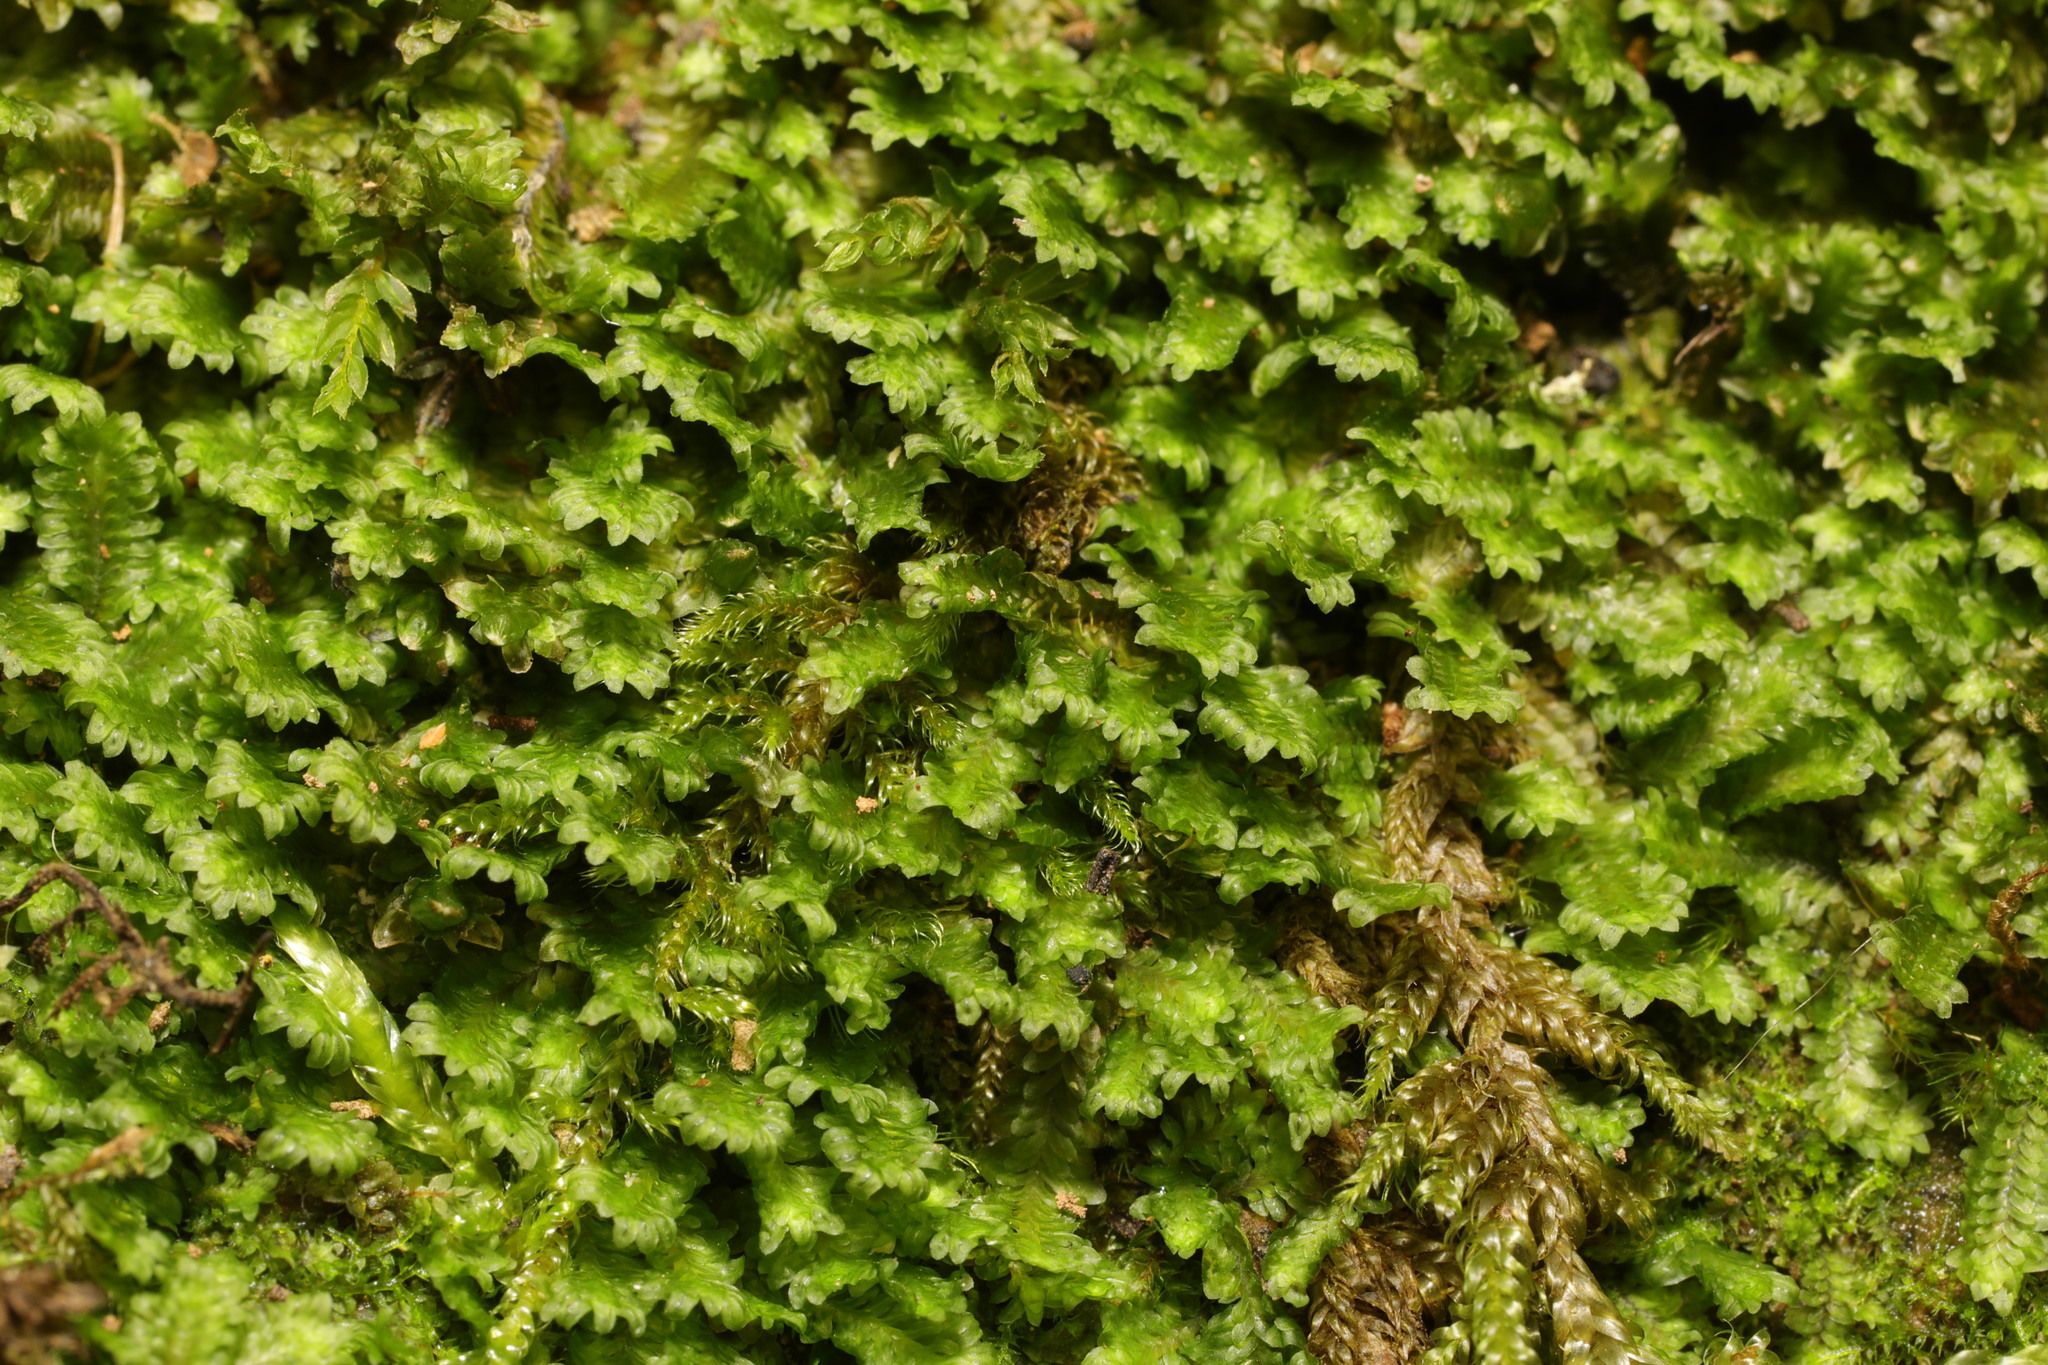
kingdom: Plantae
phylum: Marchantiophyta
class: Jungermanniopsida
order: Jungermanniales
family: Scapaniaceae
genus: Diplophyllum
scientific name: Diplophyllum albicans
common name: White earwort
